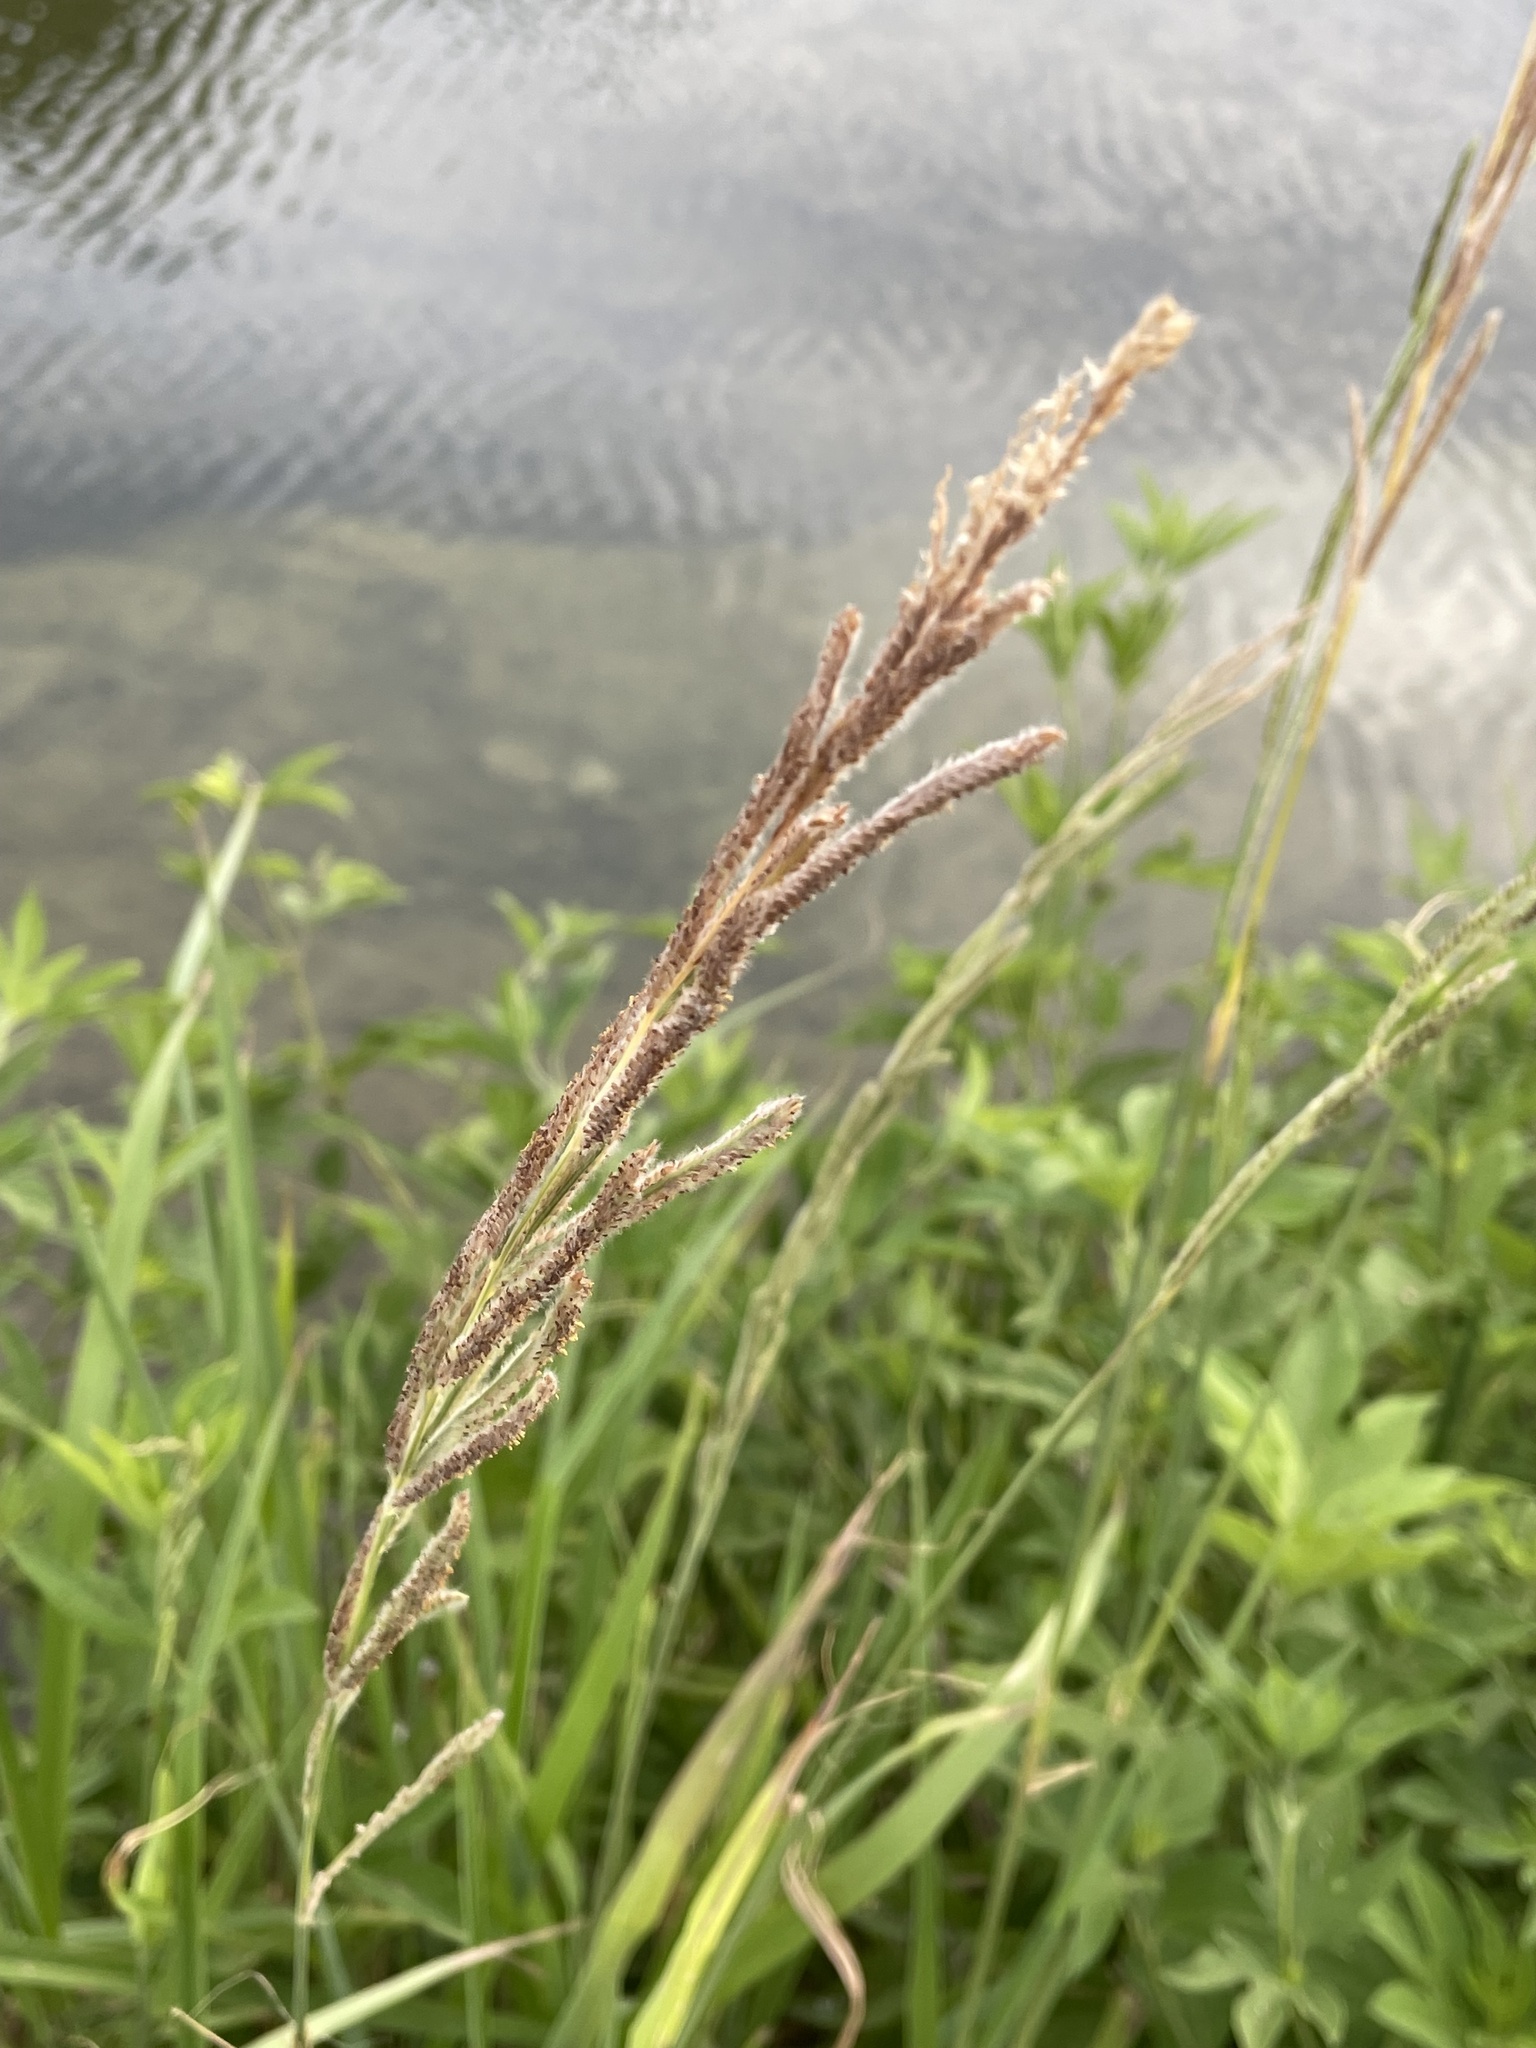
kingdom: Plantae
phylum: Tracheophyta
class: Liliopsida
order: Poales
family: Poaceae
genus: Paspalum
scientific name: Paspalum urvillei
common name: Vasey's grass
